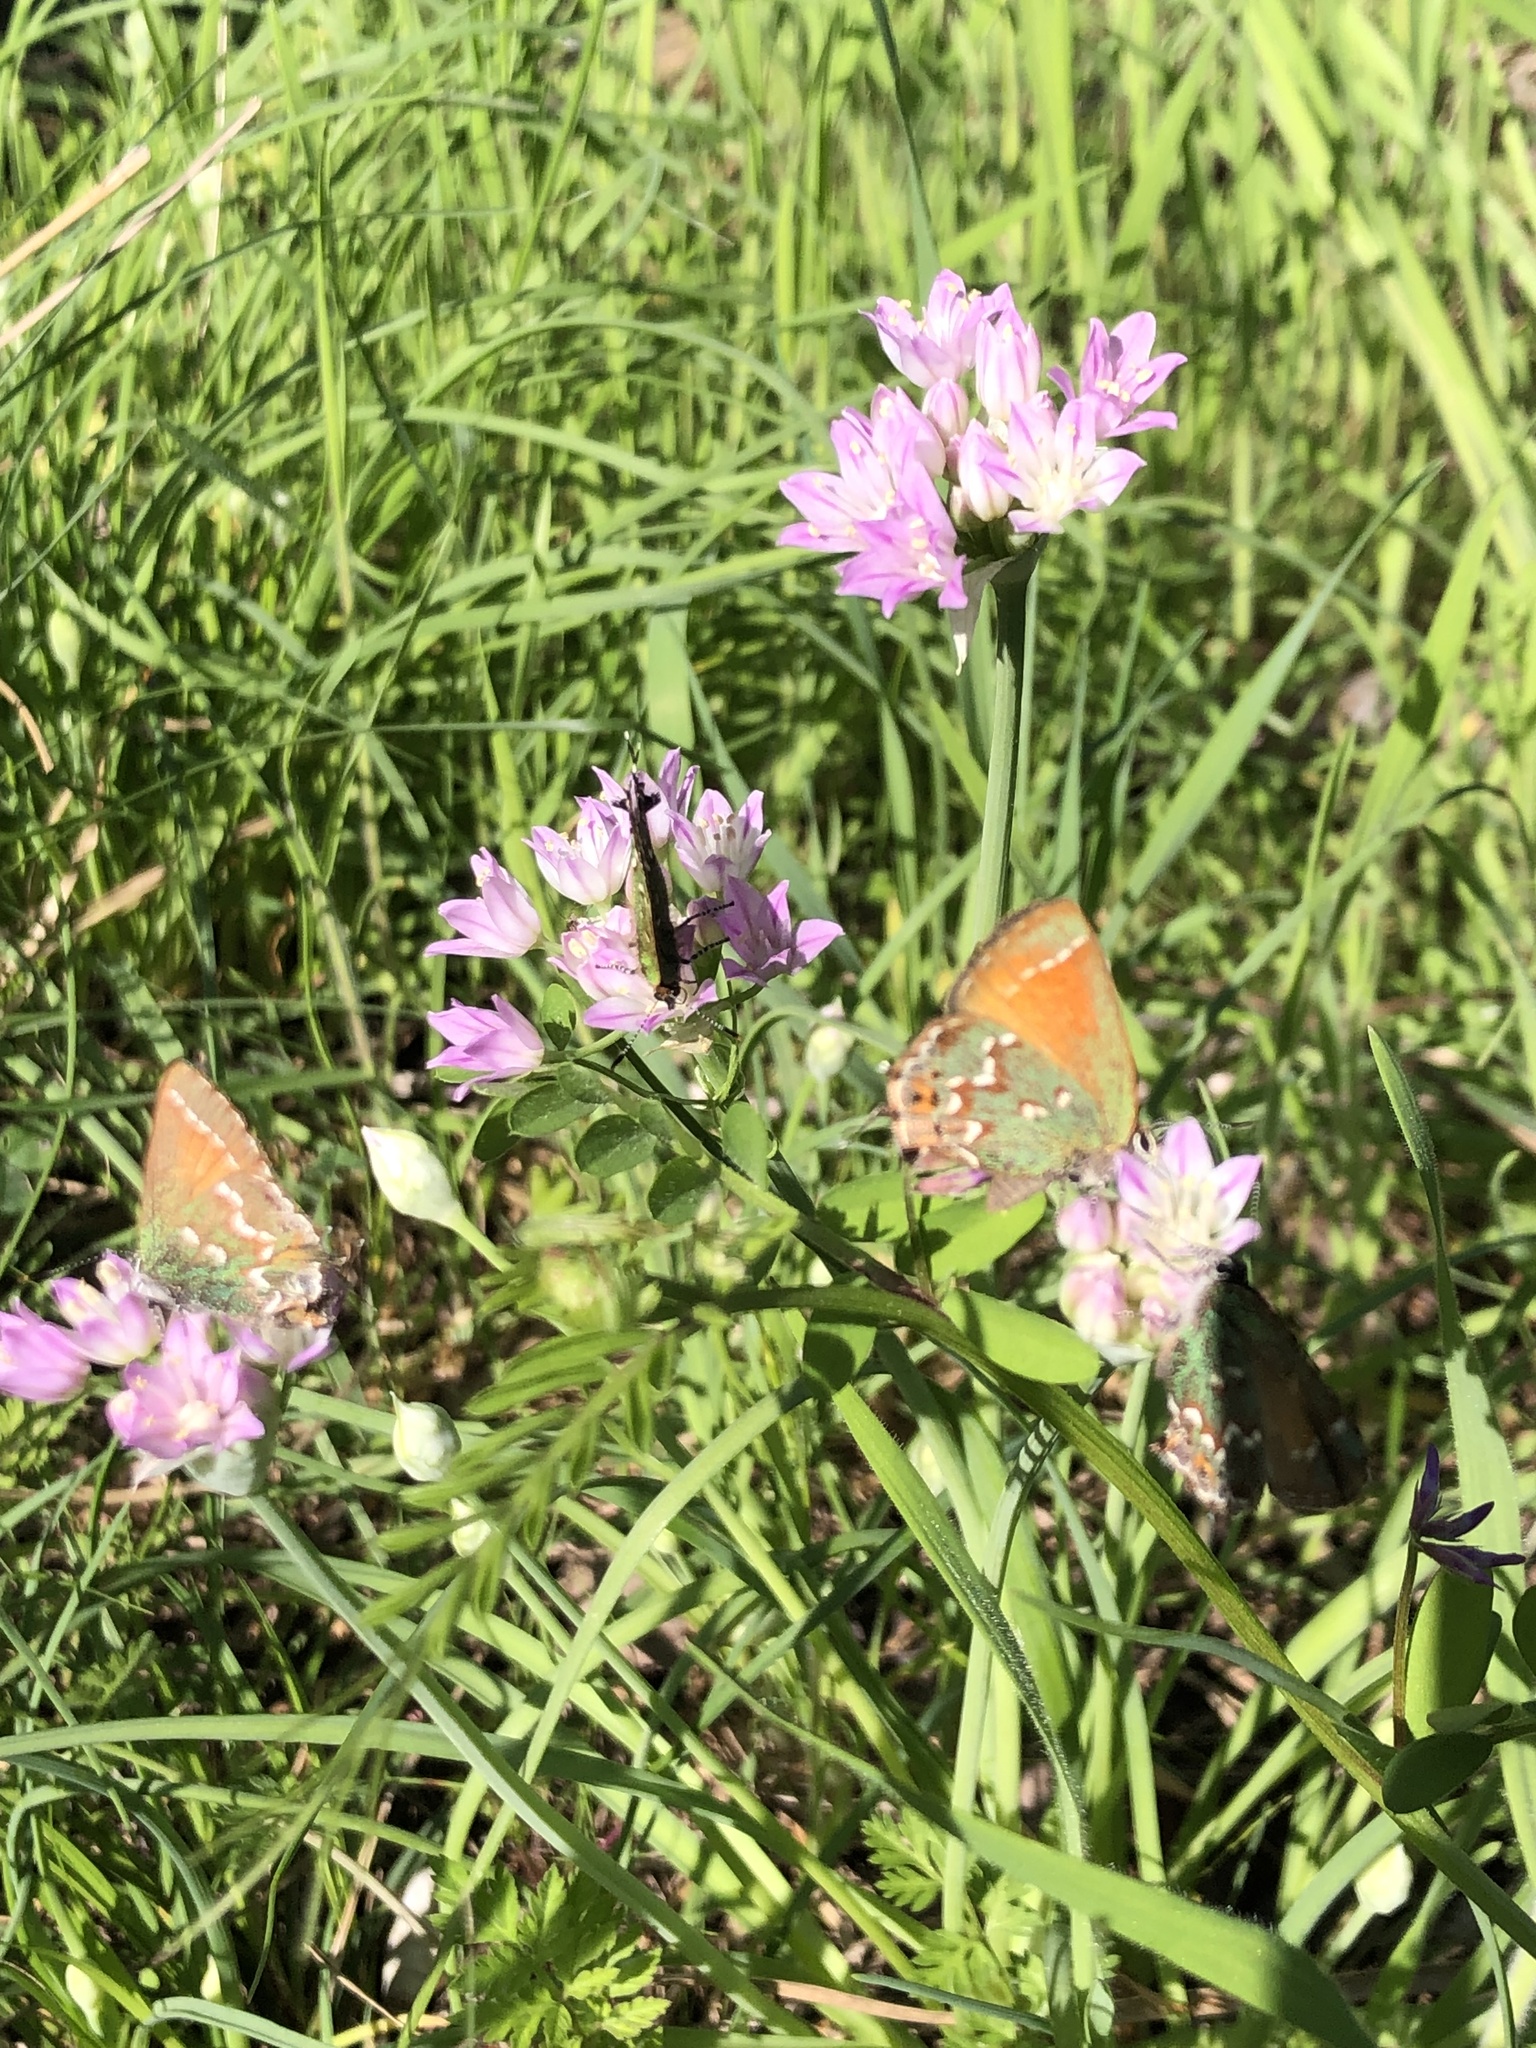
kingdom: Animalia
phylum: Arthropoda
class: Insecta
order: Lepidoptera
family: Lycaenidae
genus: Mitoura
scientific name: Mitoura gryneus
